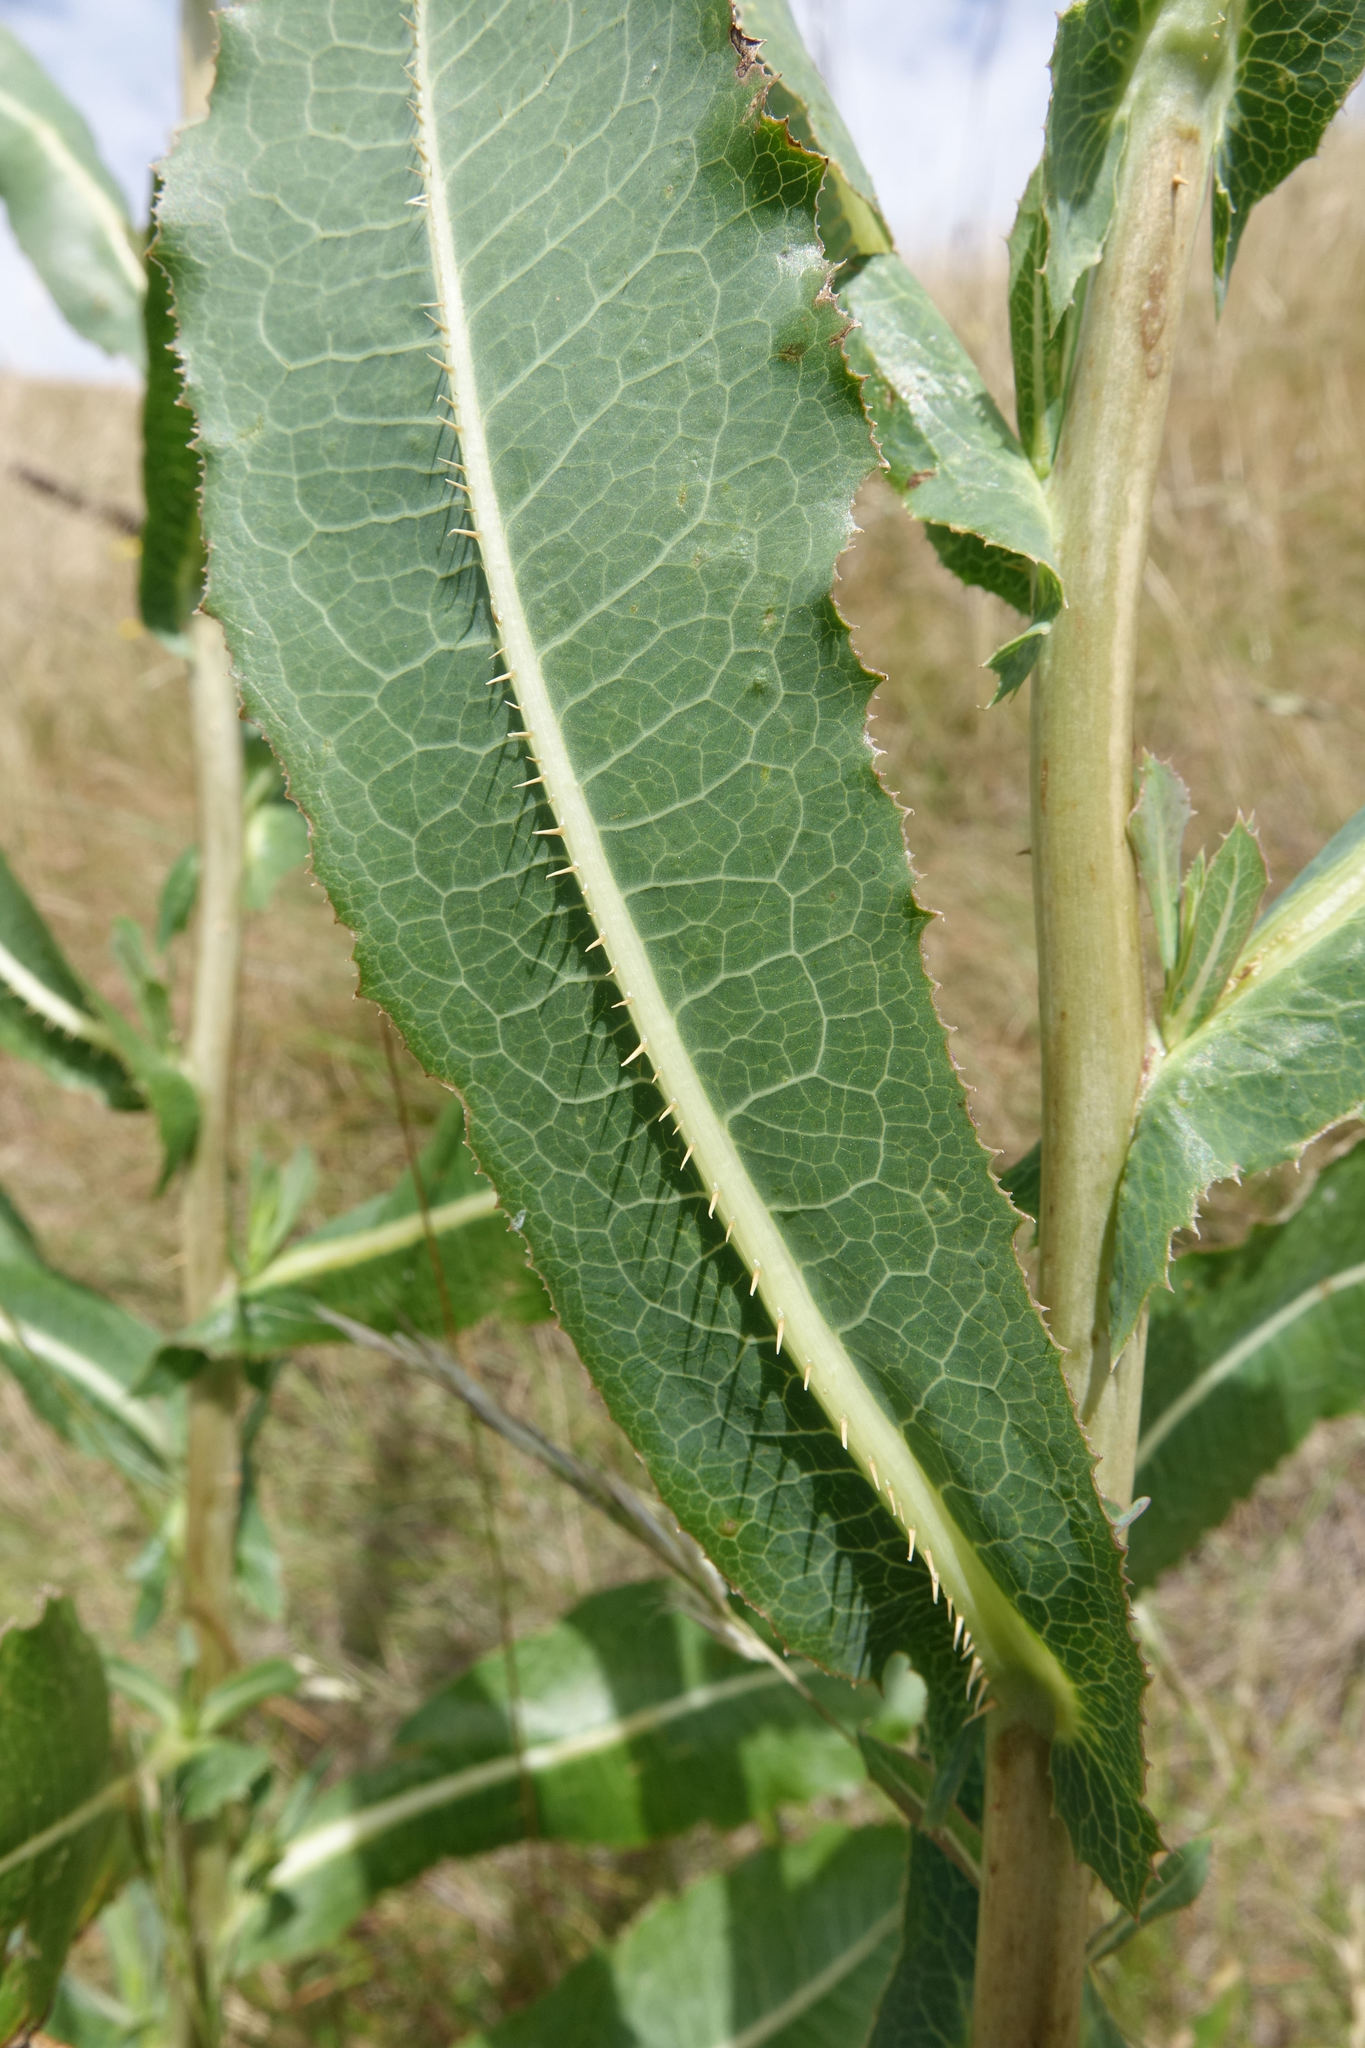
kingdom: Plantae
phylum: Tracheophyta
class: Magnoliopsida
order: Asterales
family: Asteraceae
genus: Lactuca
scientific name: Lactuca serriola
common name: Prickly lettuce
